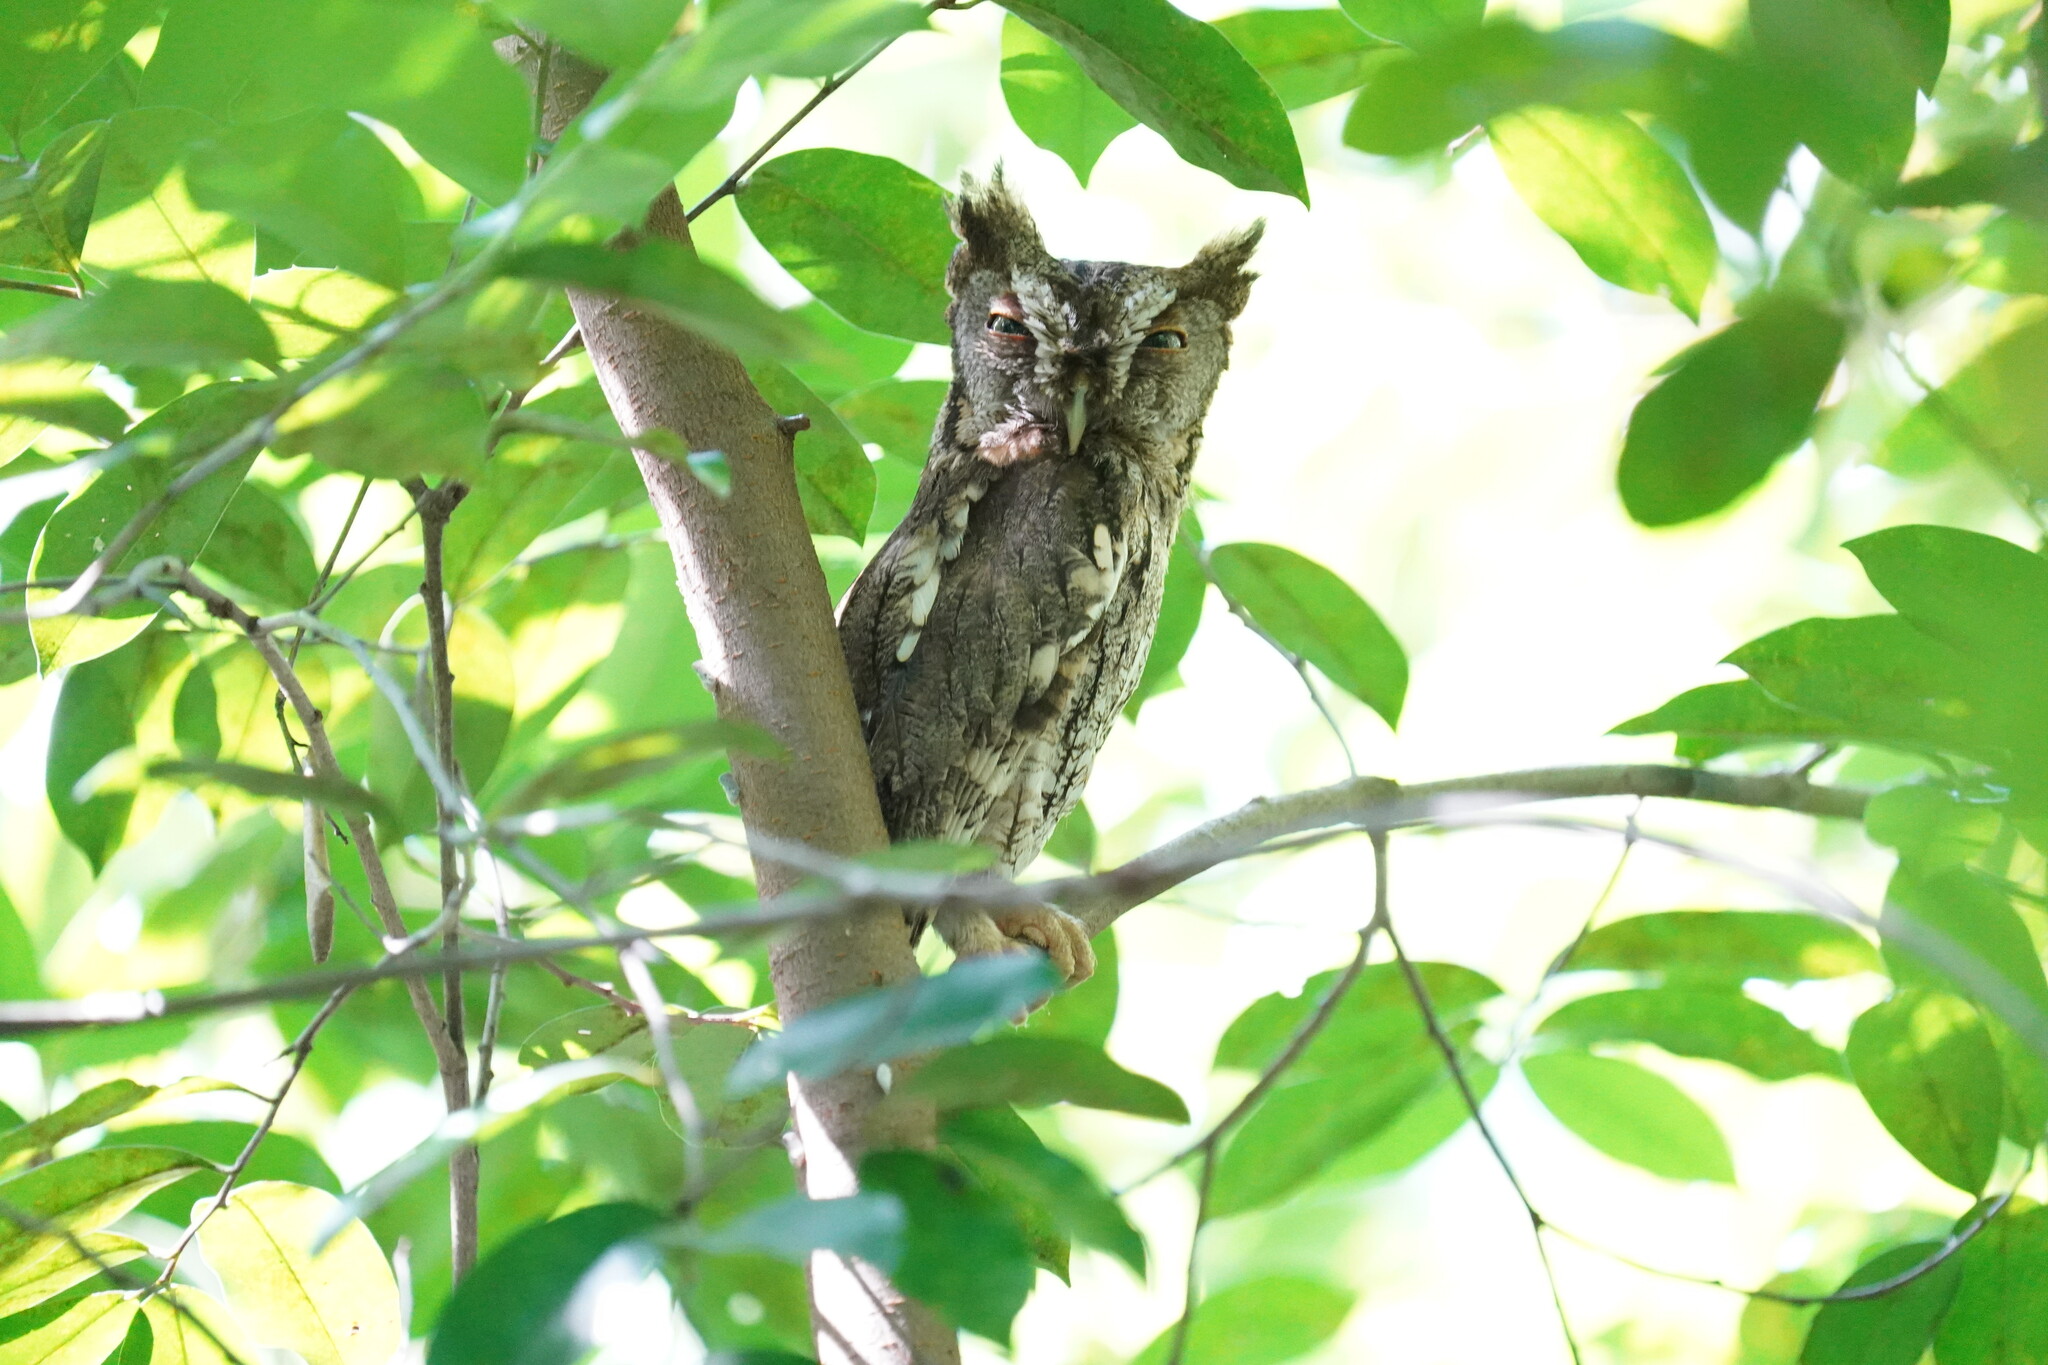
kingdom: Animalia
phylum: Chordata
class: Aves
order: Strigiformes
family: Strigidae
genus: Megascops
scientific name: Megascops asio
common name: Eastern screech-owl
